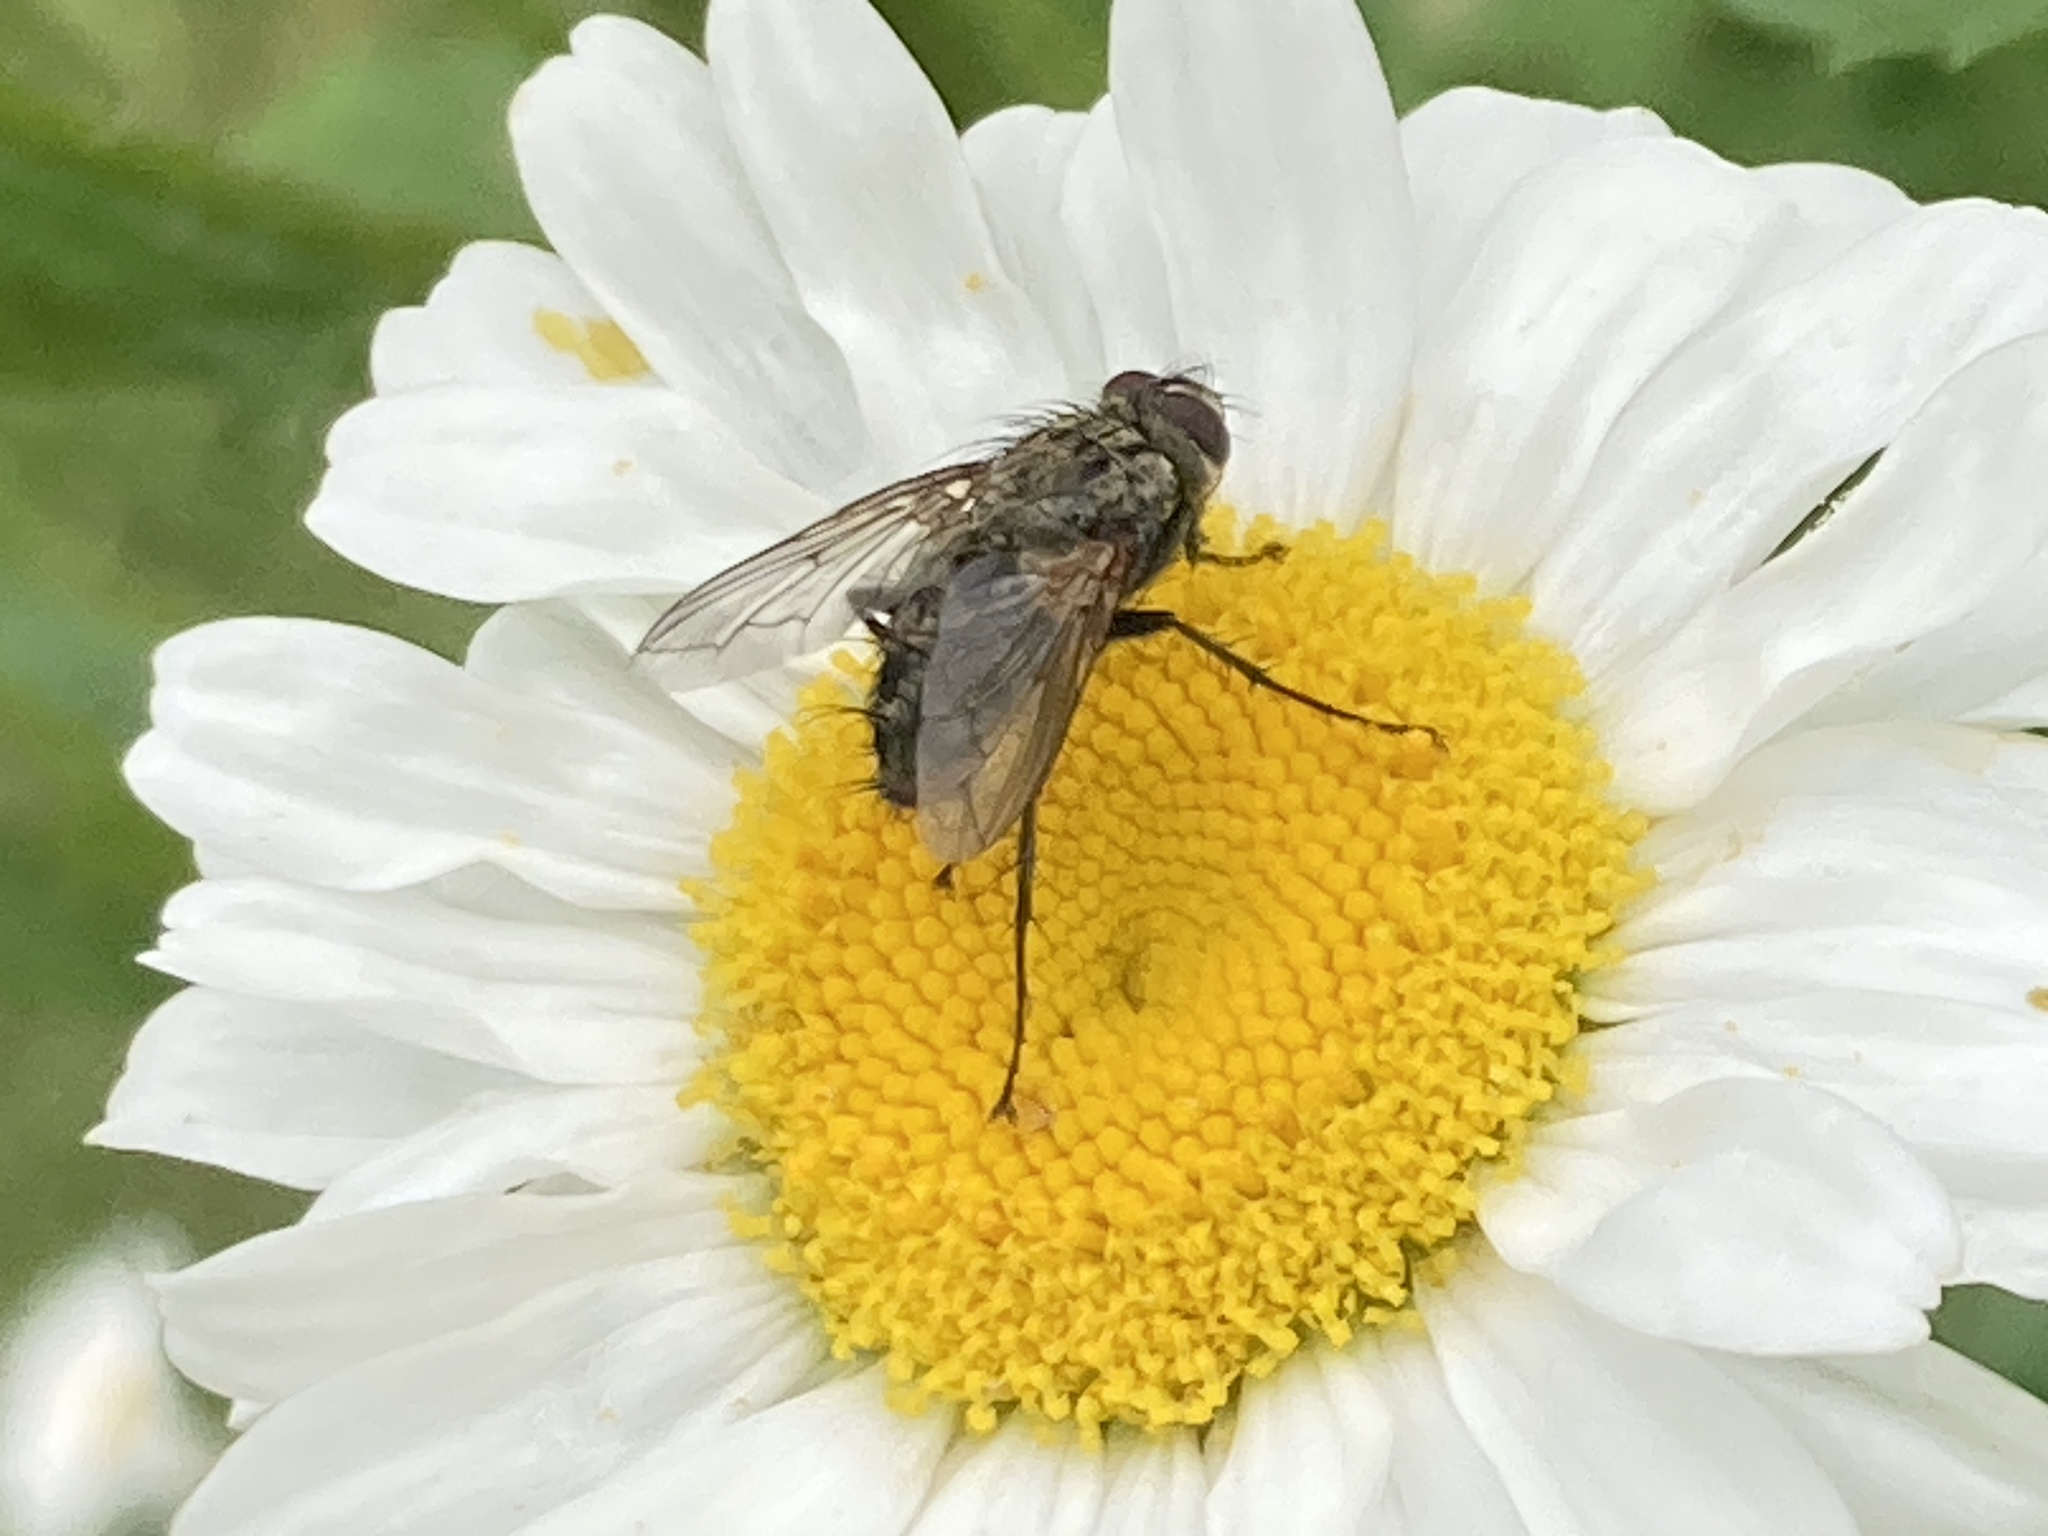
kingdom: Animalia
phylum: Arthropoda
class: Insecta
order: Diptera
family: Tachinidae
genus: Estheria
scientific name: Estheria cristata
